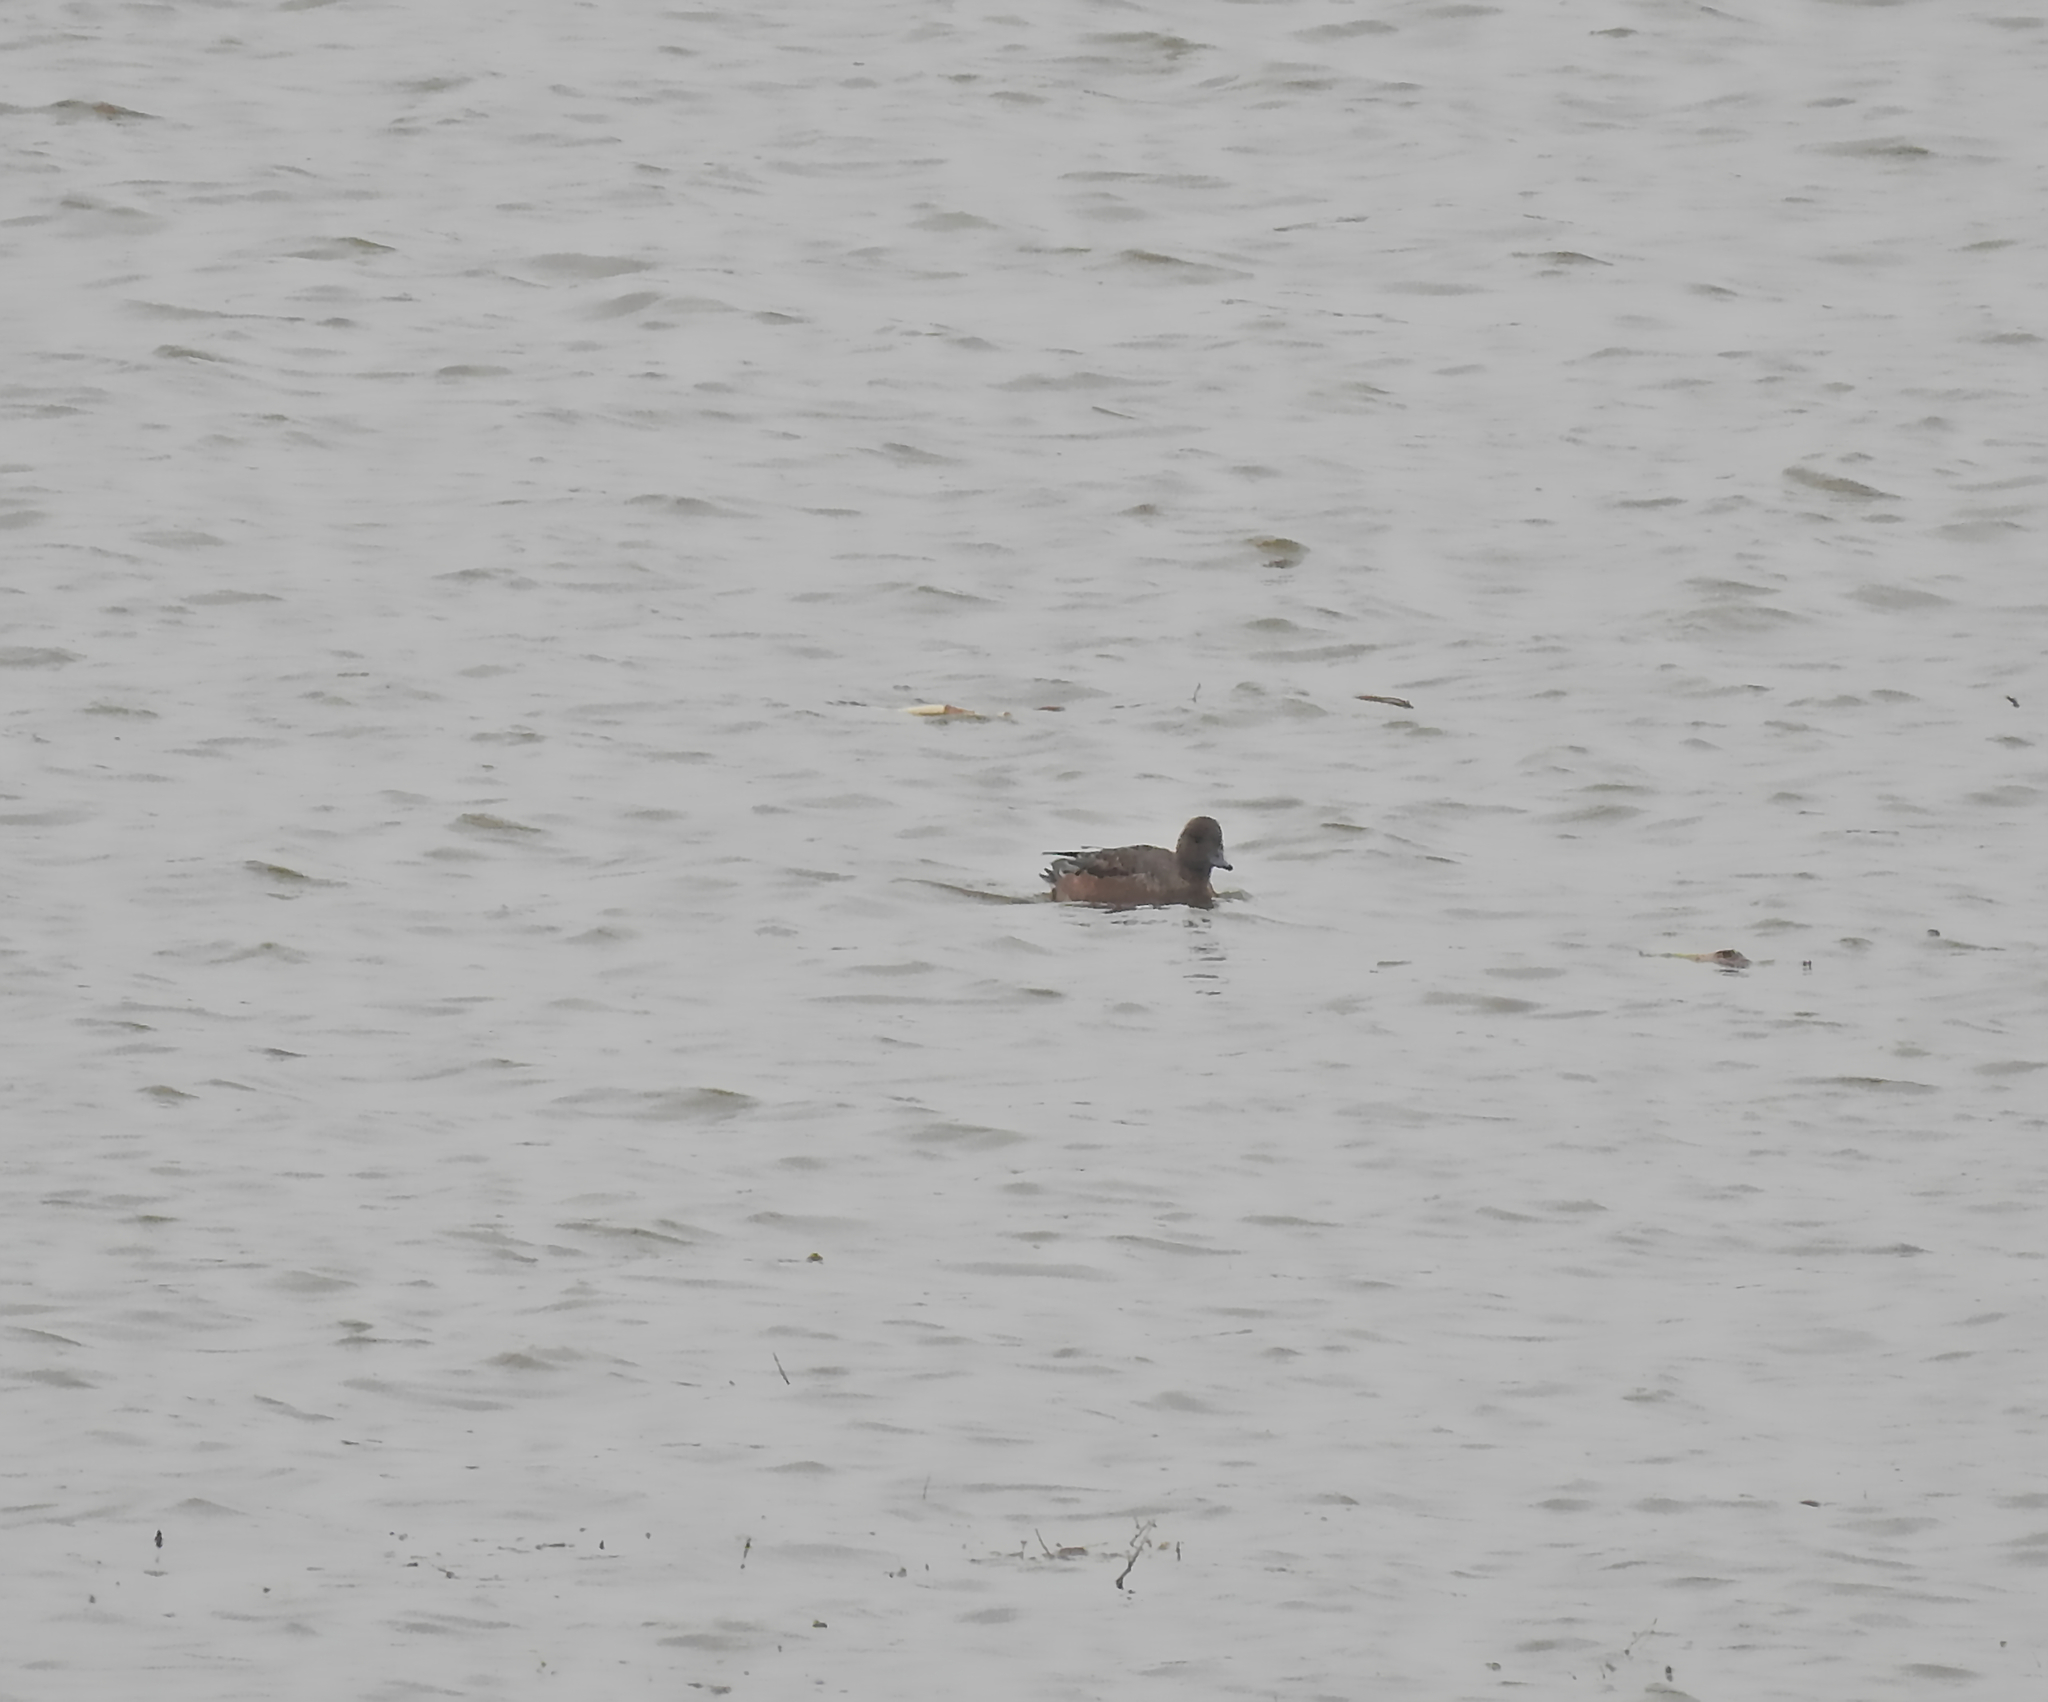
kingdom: Animalia
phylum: Chordata
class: Aves
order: Anseriformes
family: Anatidae
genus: Mareca
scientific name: Mareca penelope
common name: Eurasian wigeon
